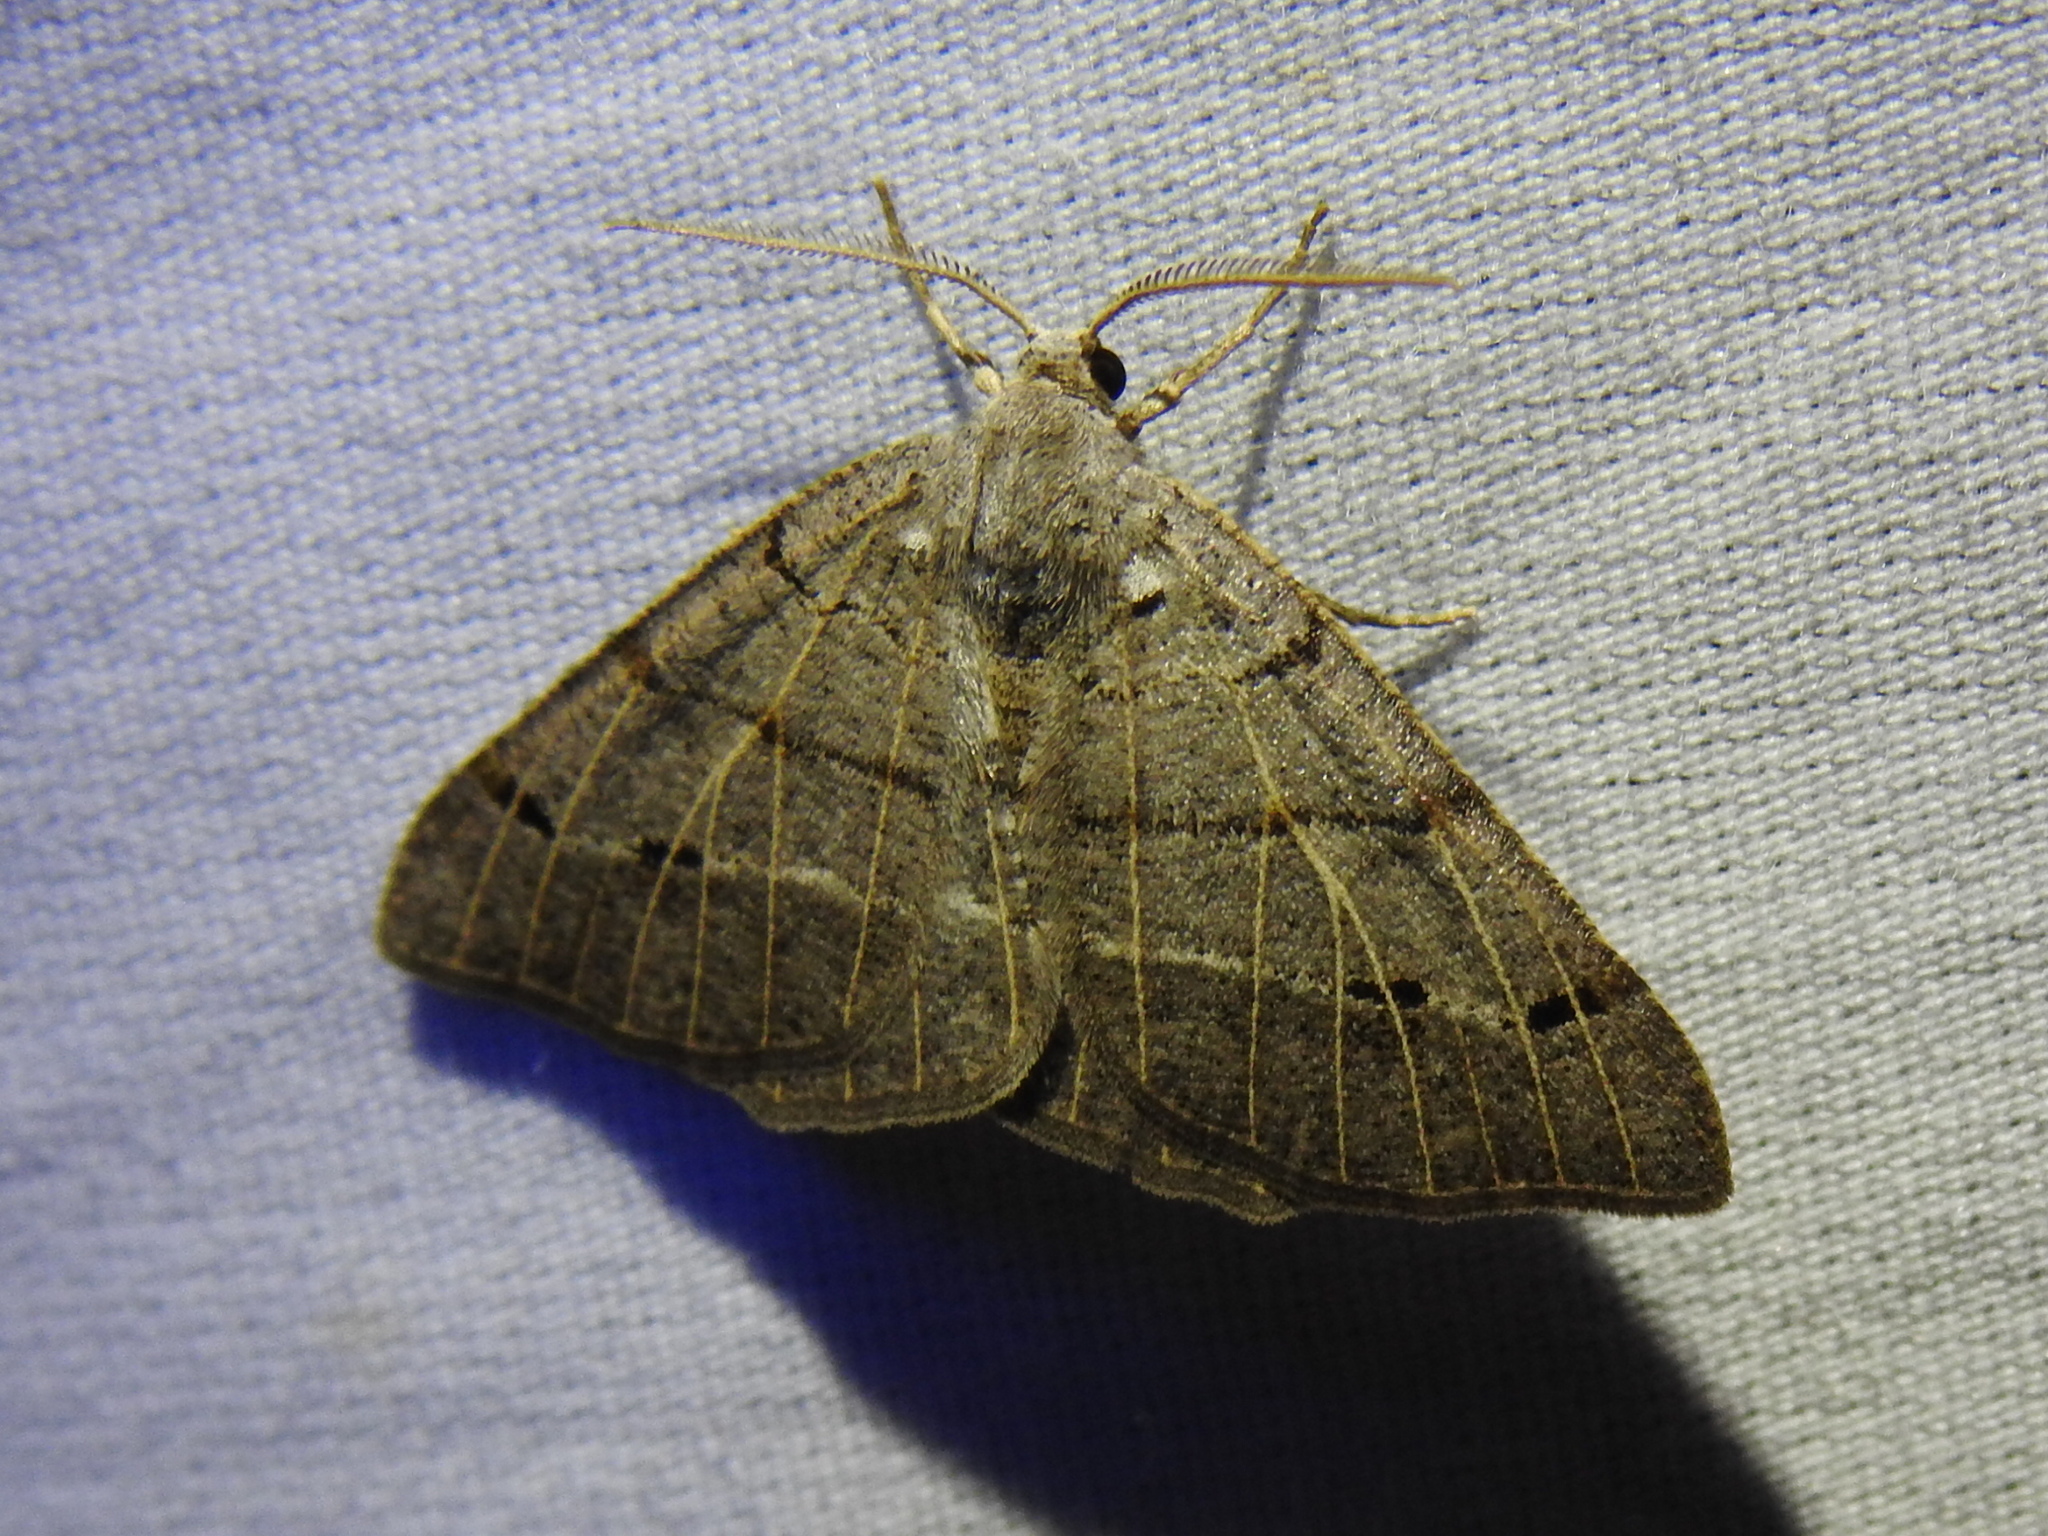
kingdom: Animalia
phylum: Arthropoda
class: Insecta
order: Lepidoptera
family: Geometridae
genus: Isturgia
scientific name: Isturgia dislocaria
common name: Pale-viened enconista
